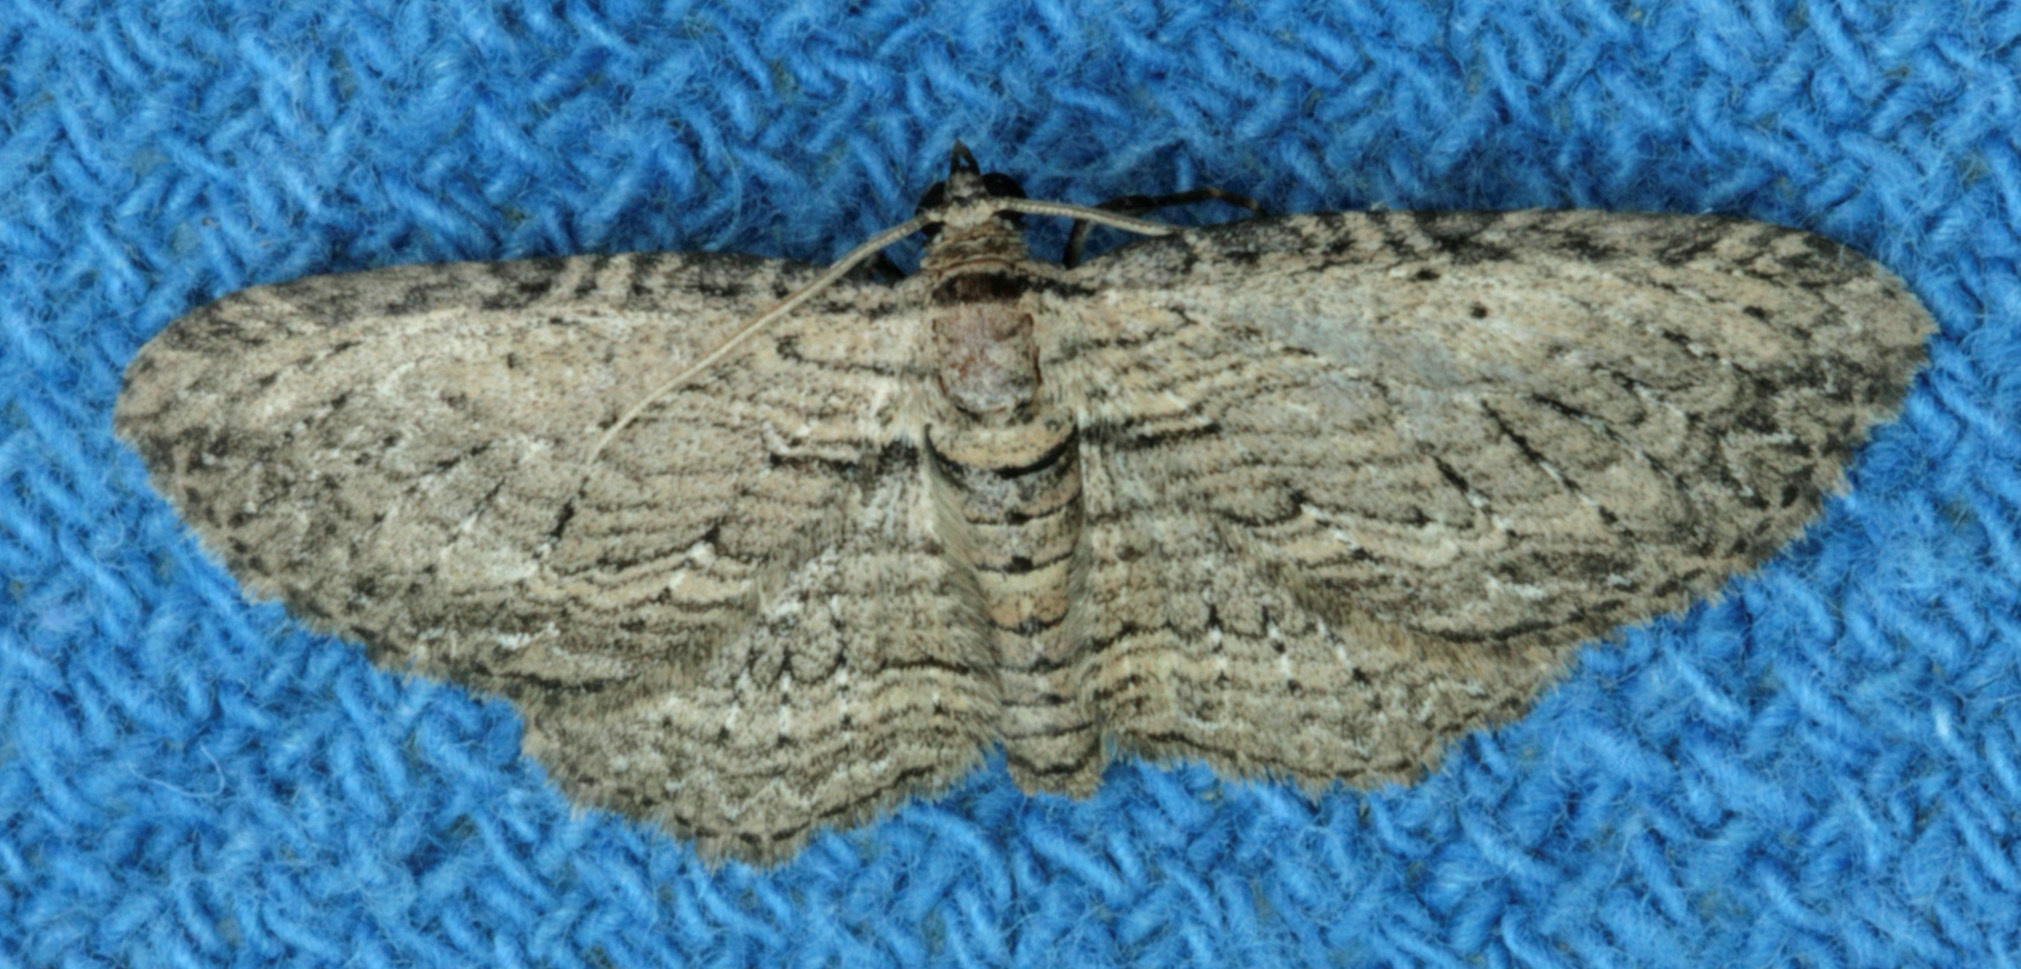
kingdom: Animalia
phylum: Arthropoda
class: Insecta
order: Lepidoptera
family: Geometridae
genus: Horisme
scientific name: Horisme intestinata
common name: Brown bark carpet
